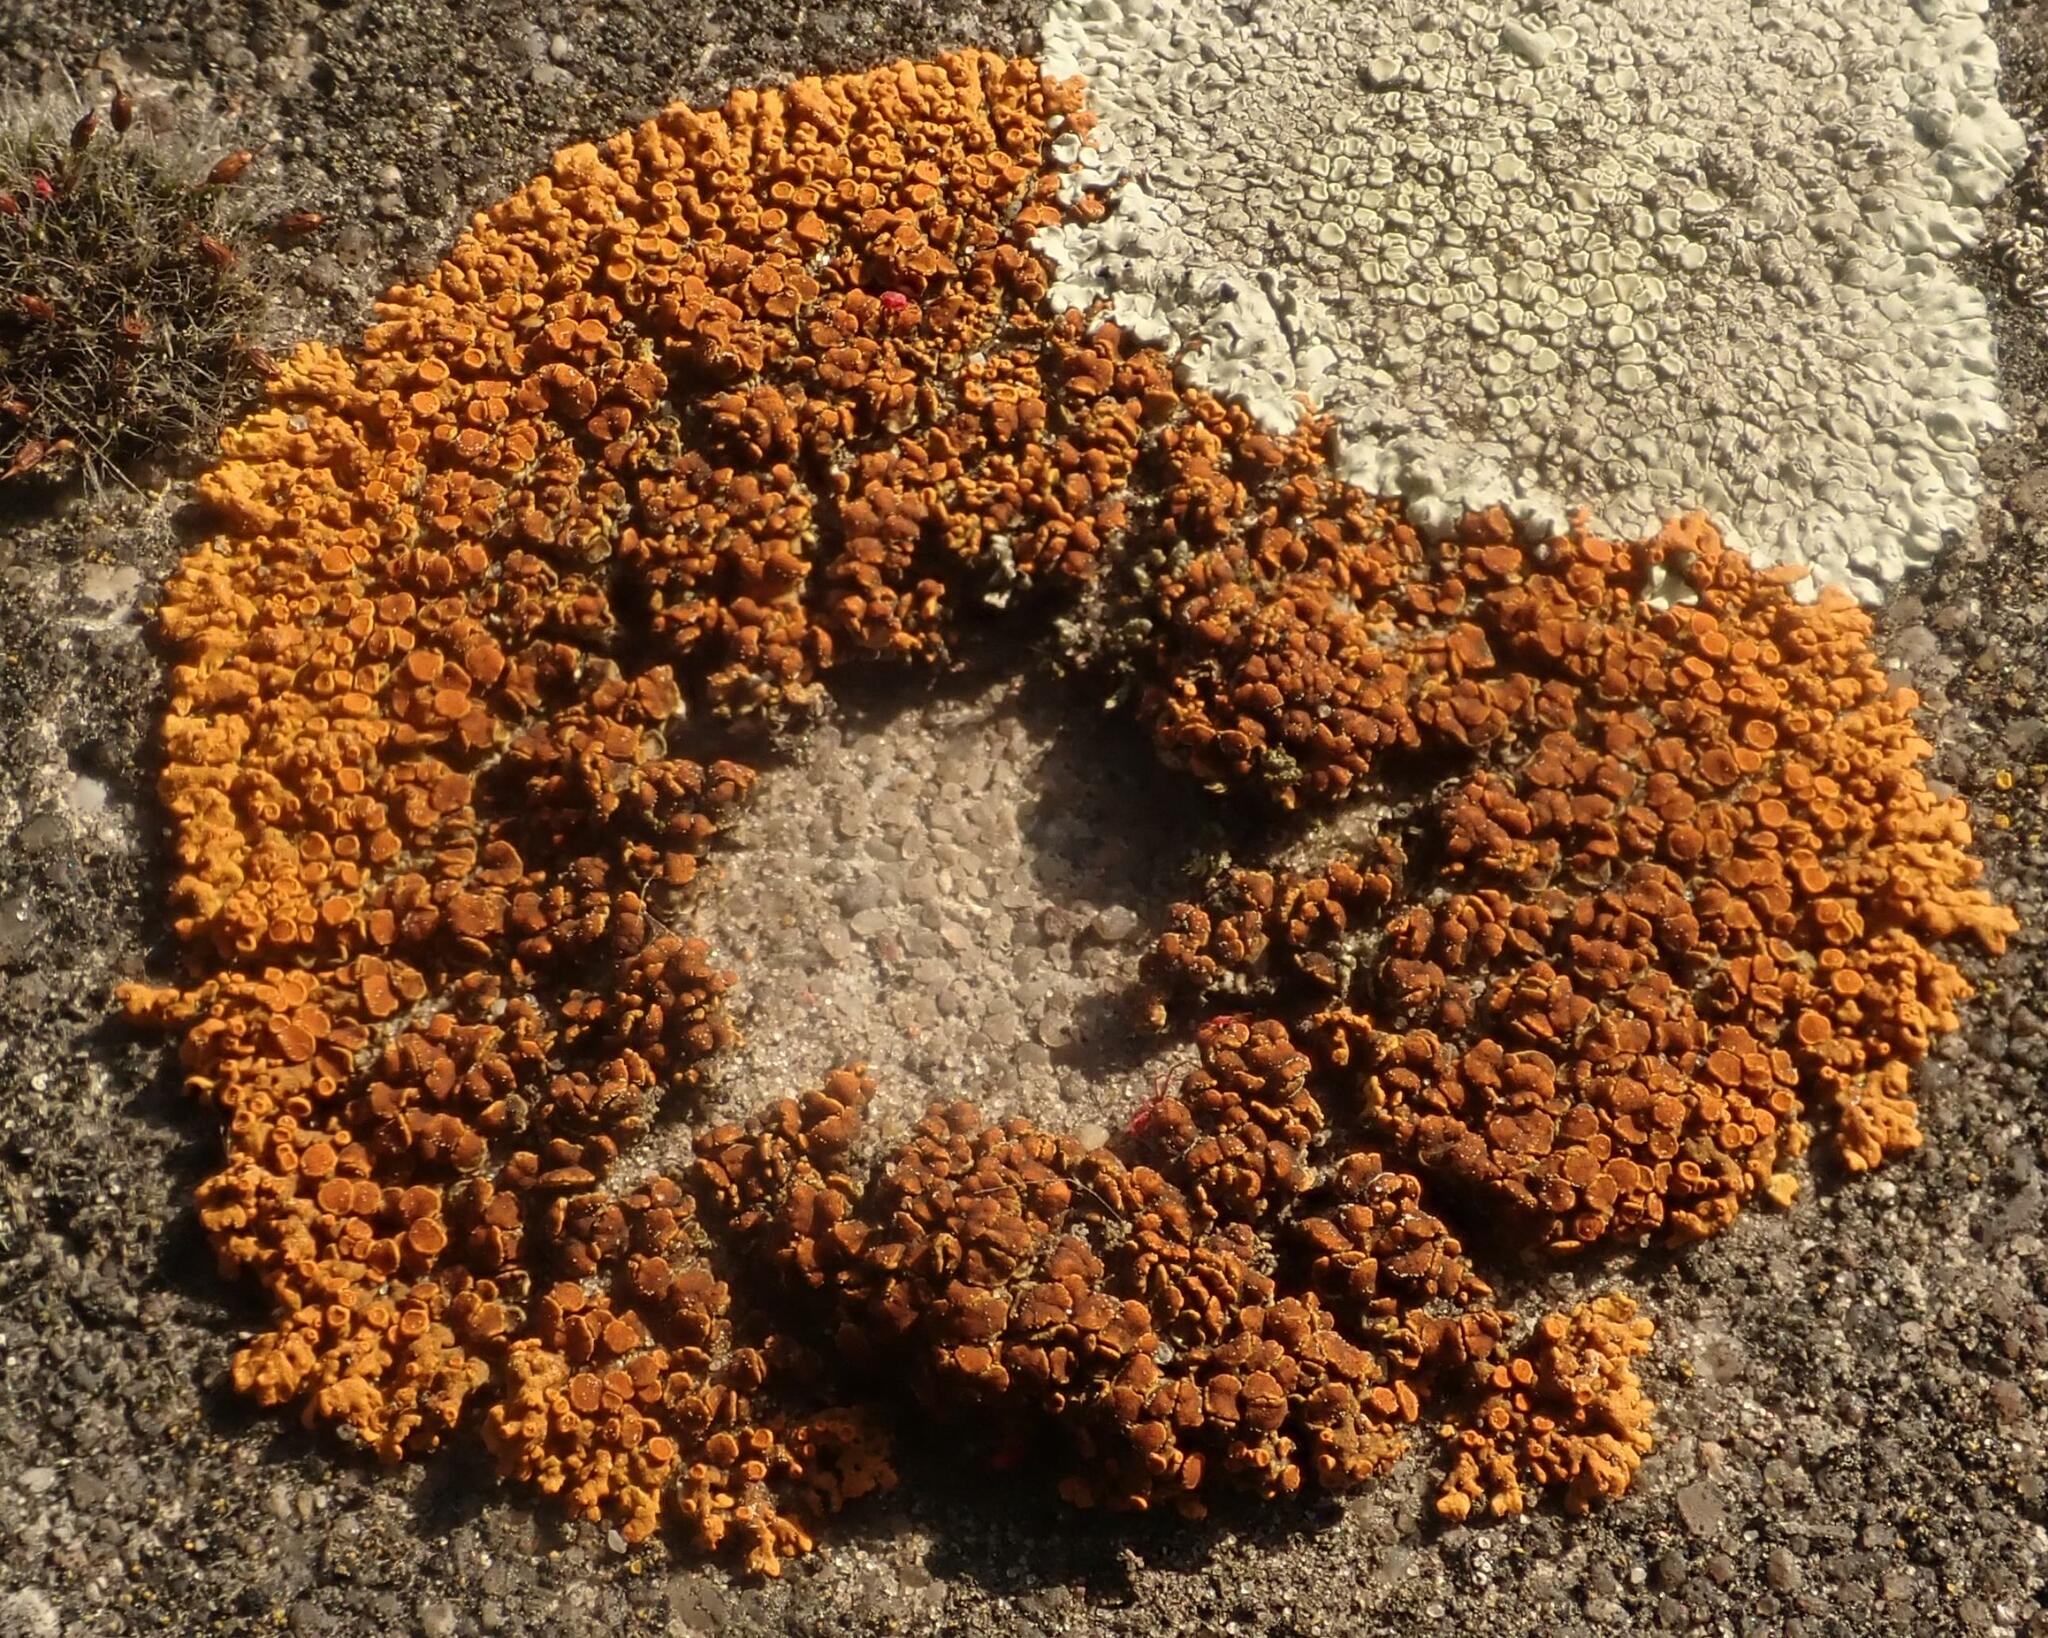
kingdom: Fungi
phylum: Ascomycota
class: Lecanoromycetes
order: Teloschistales
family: Teloschistaceae
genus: Xanthoria
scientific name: Xanthoria elegans
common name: Elegant sunburst lichen
